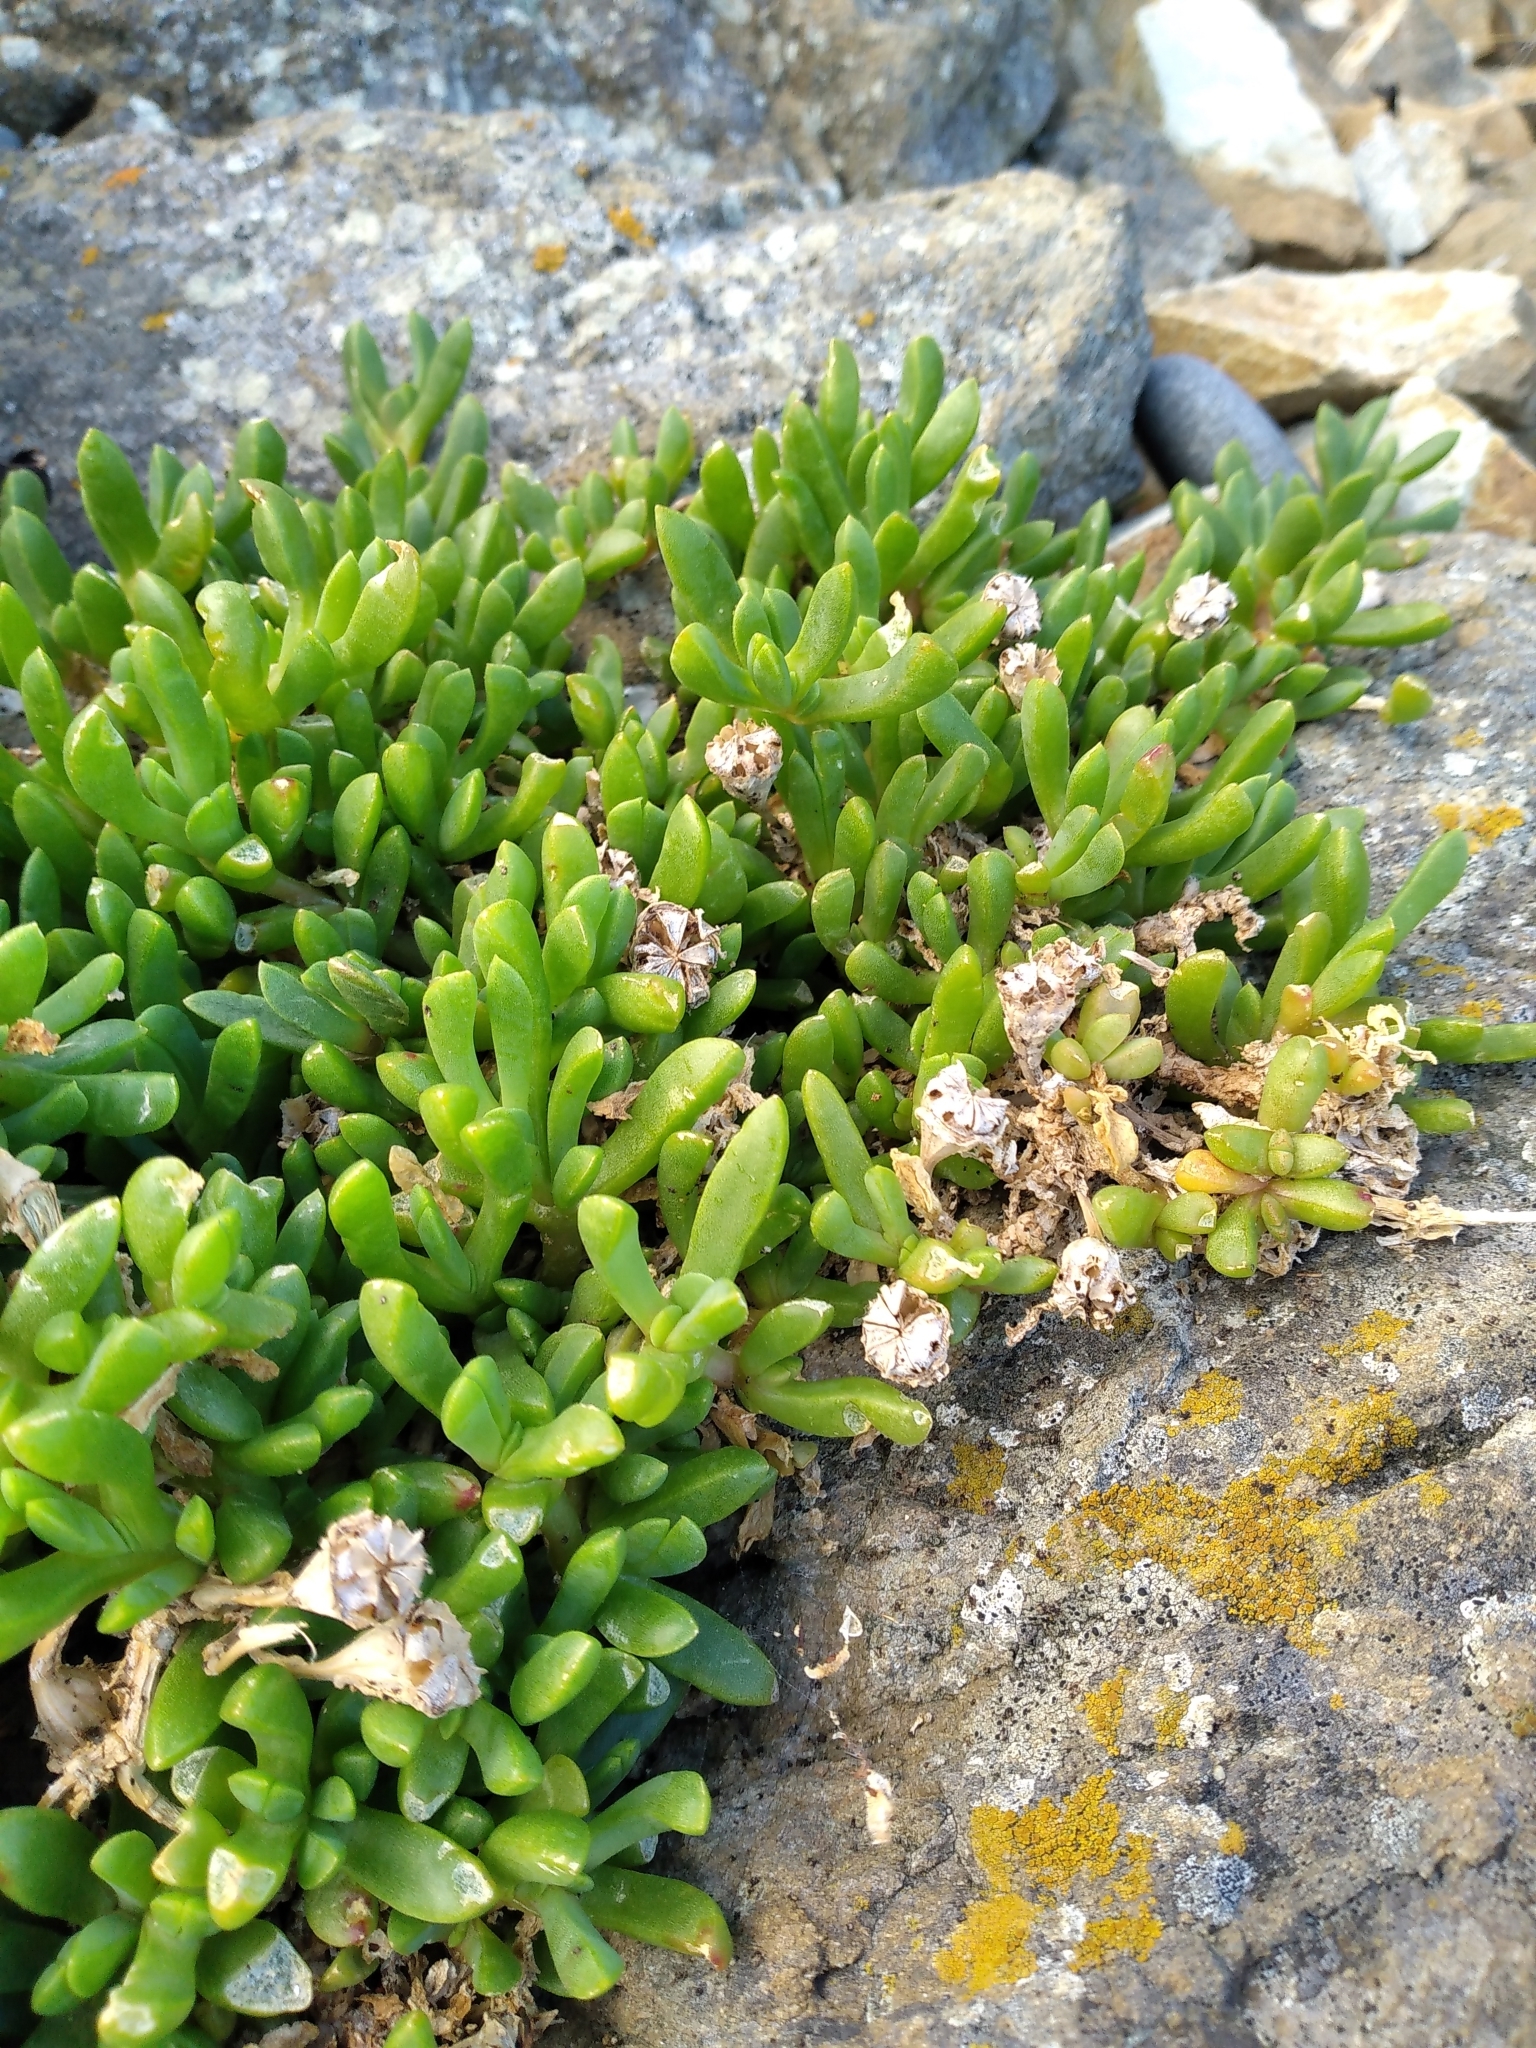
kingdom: Plantae
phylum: Tracheophyta
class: Magnoliopsida
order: Caryophyllales
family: Aizoaceae
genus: Disphyma
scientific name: Disphyma australe
